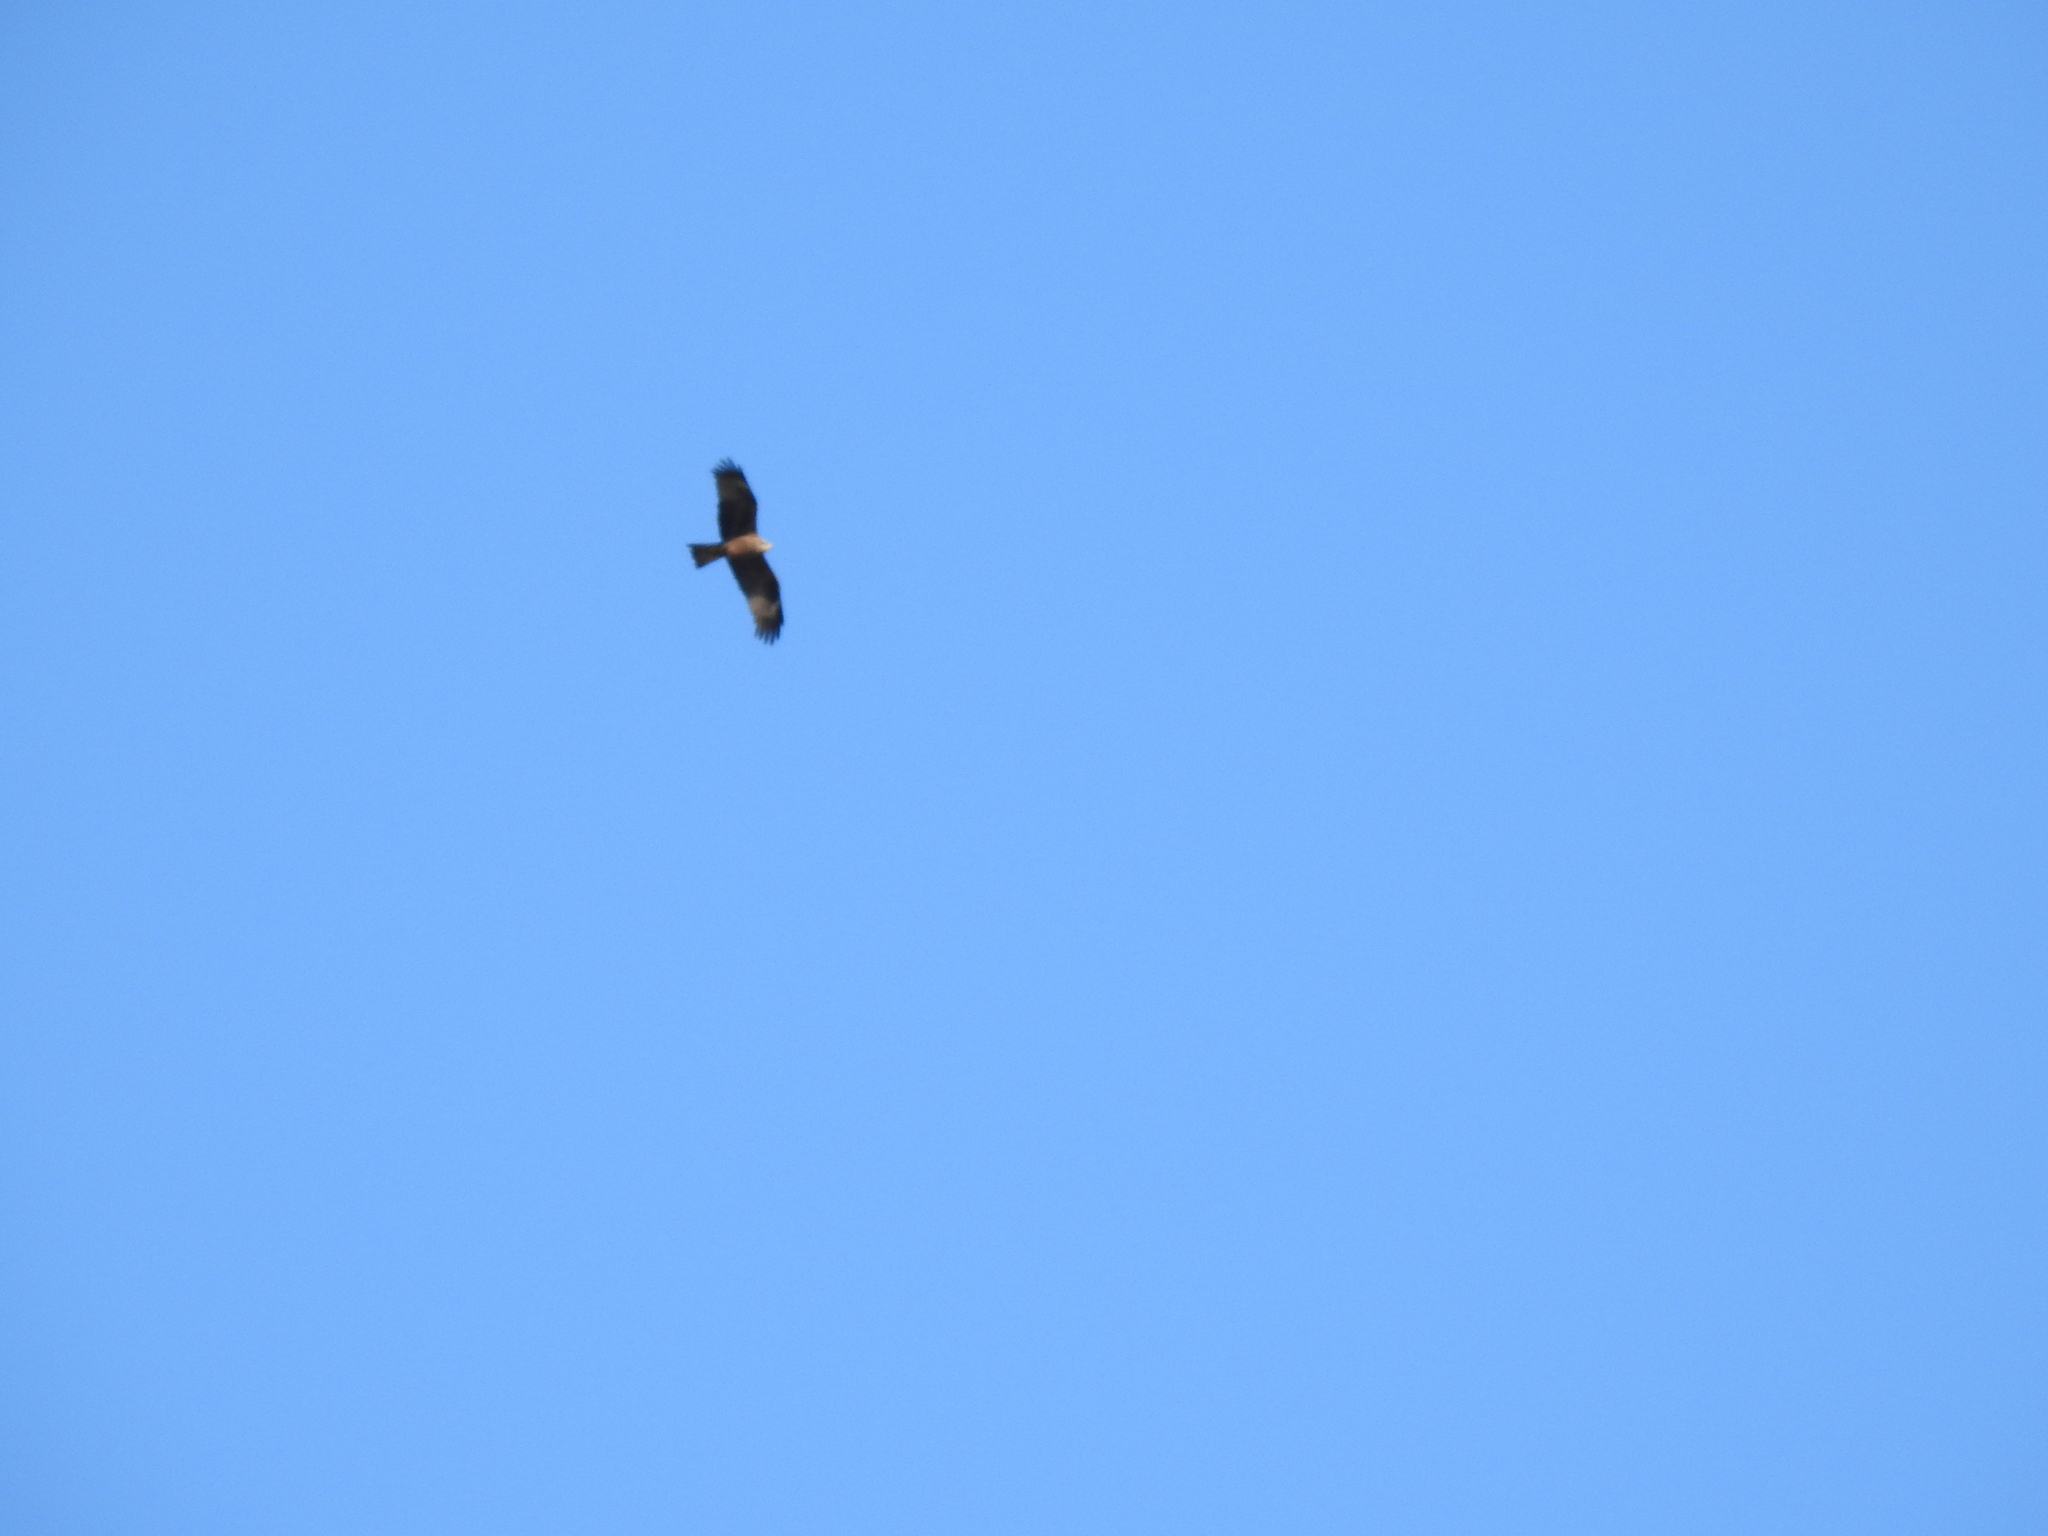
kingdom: Animalia
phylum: Chordata
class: Aves
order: Accipitriformes
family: Accipitridae
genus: Milvus
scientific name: Milvus migrans
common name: Black kite
